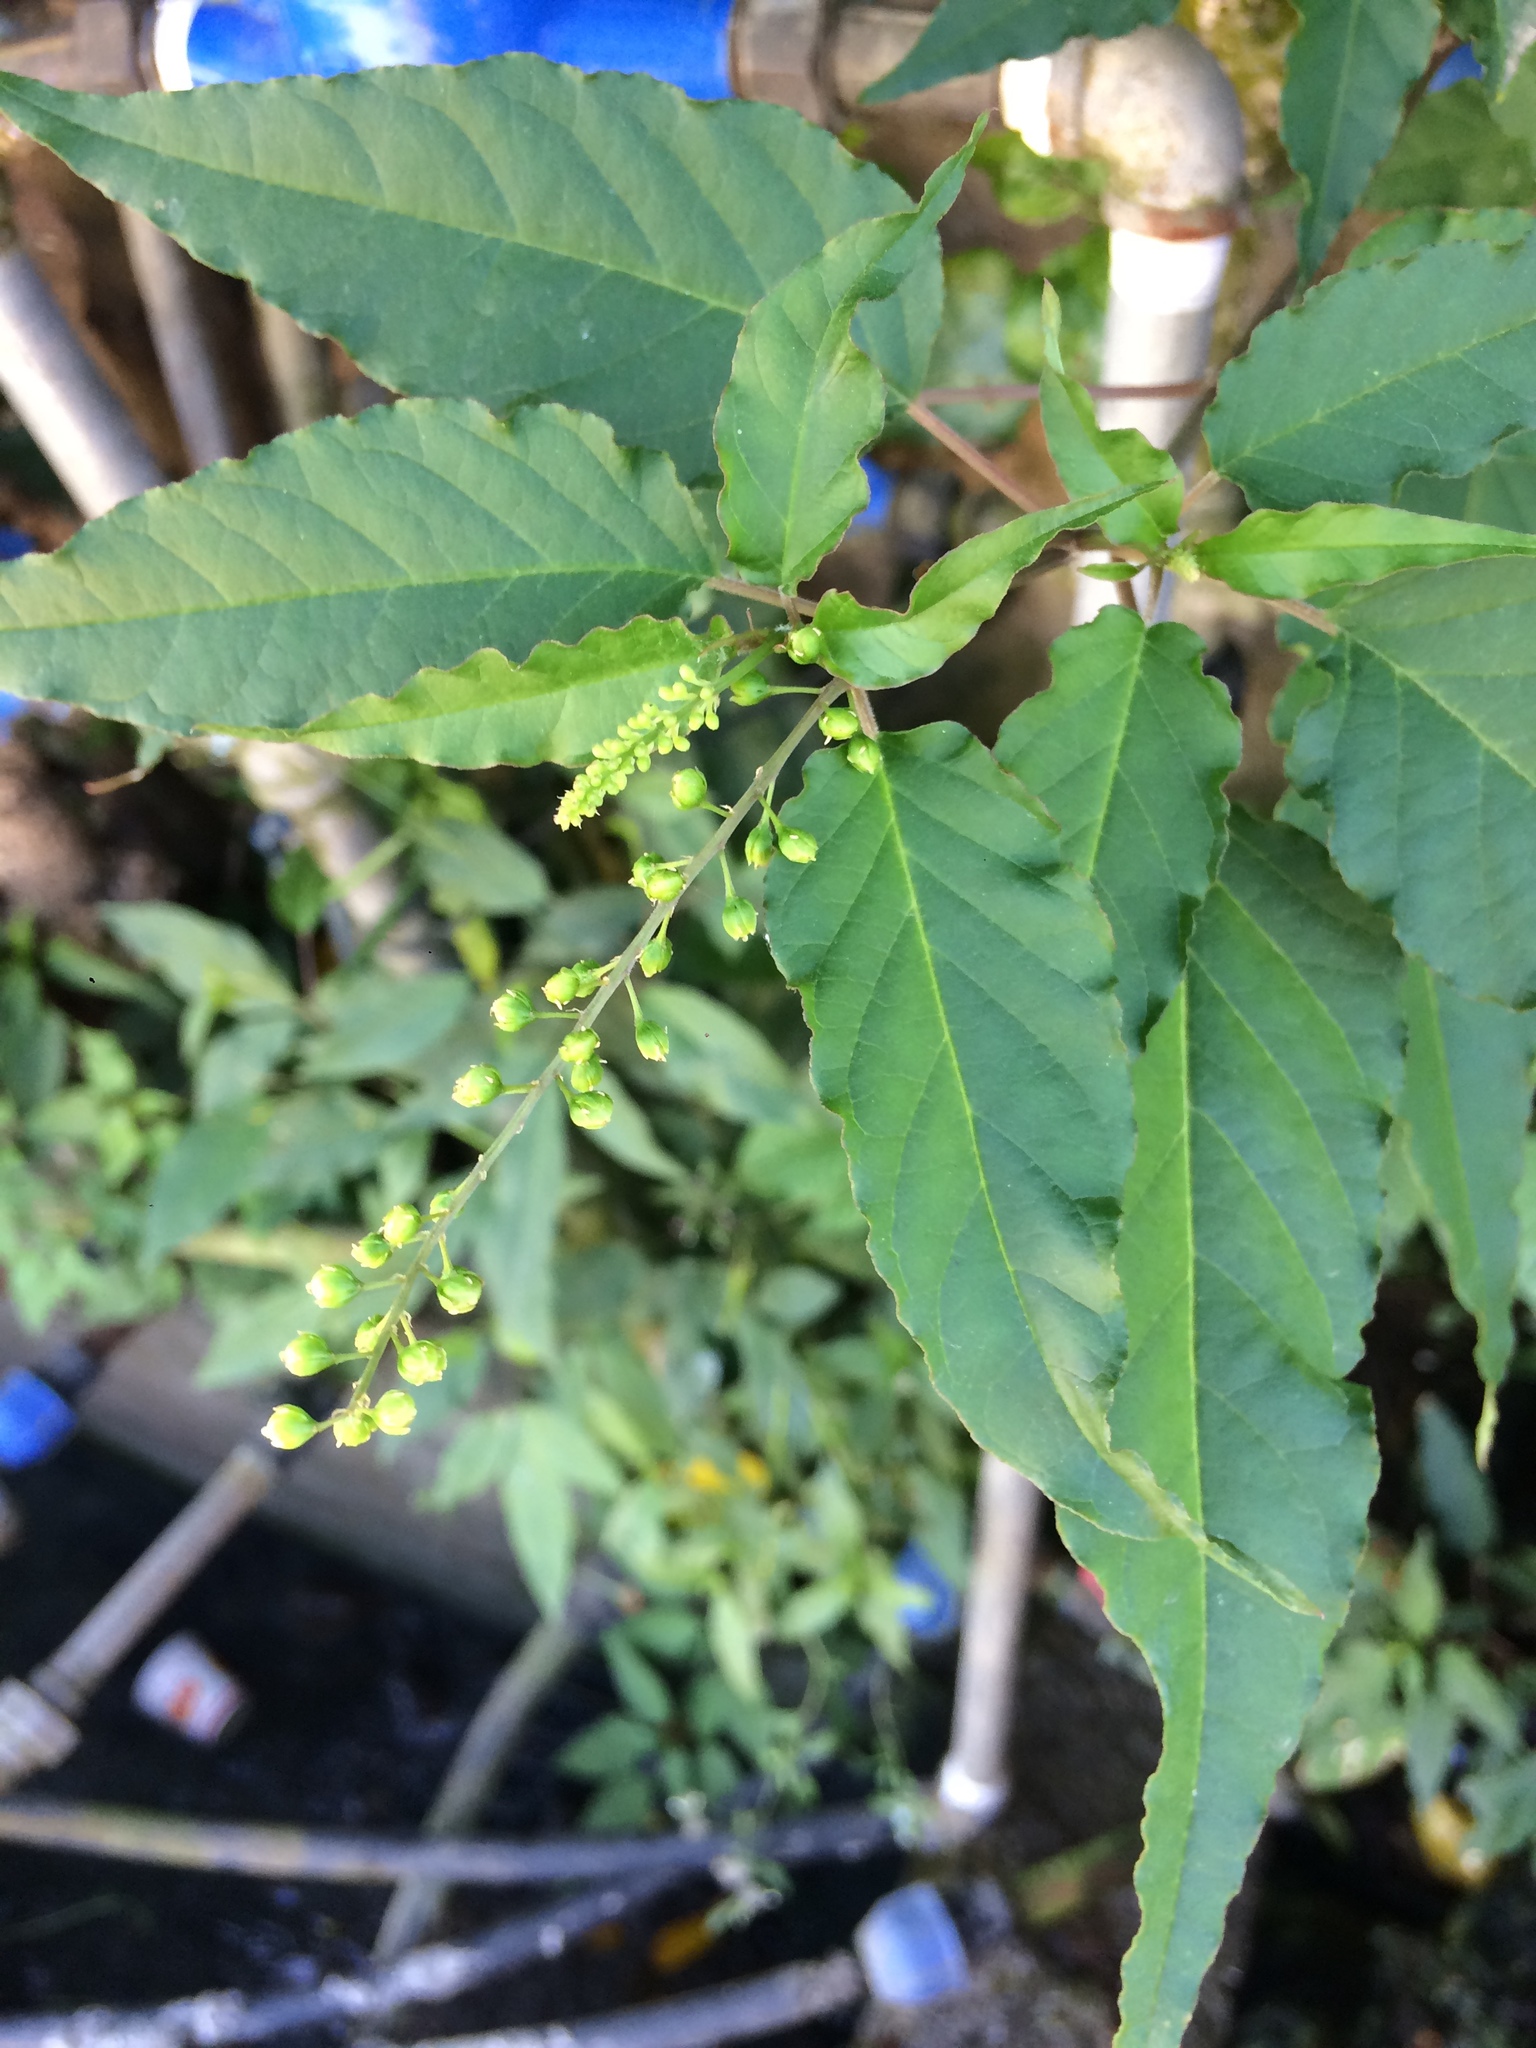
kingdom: Plantae
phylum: Tracheophyta
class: Magnoliopsida
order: Caryophyllales
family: Phytolaccaceae
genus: Rivina
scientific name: Rivina humilis
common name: Rougeplant
